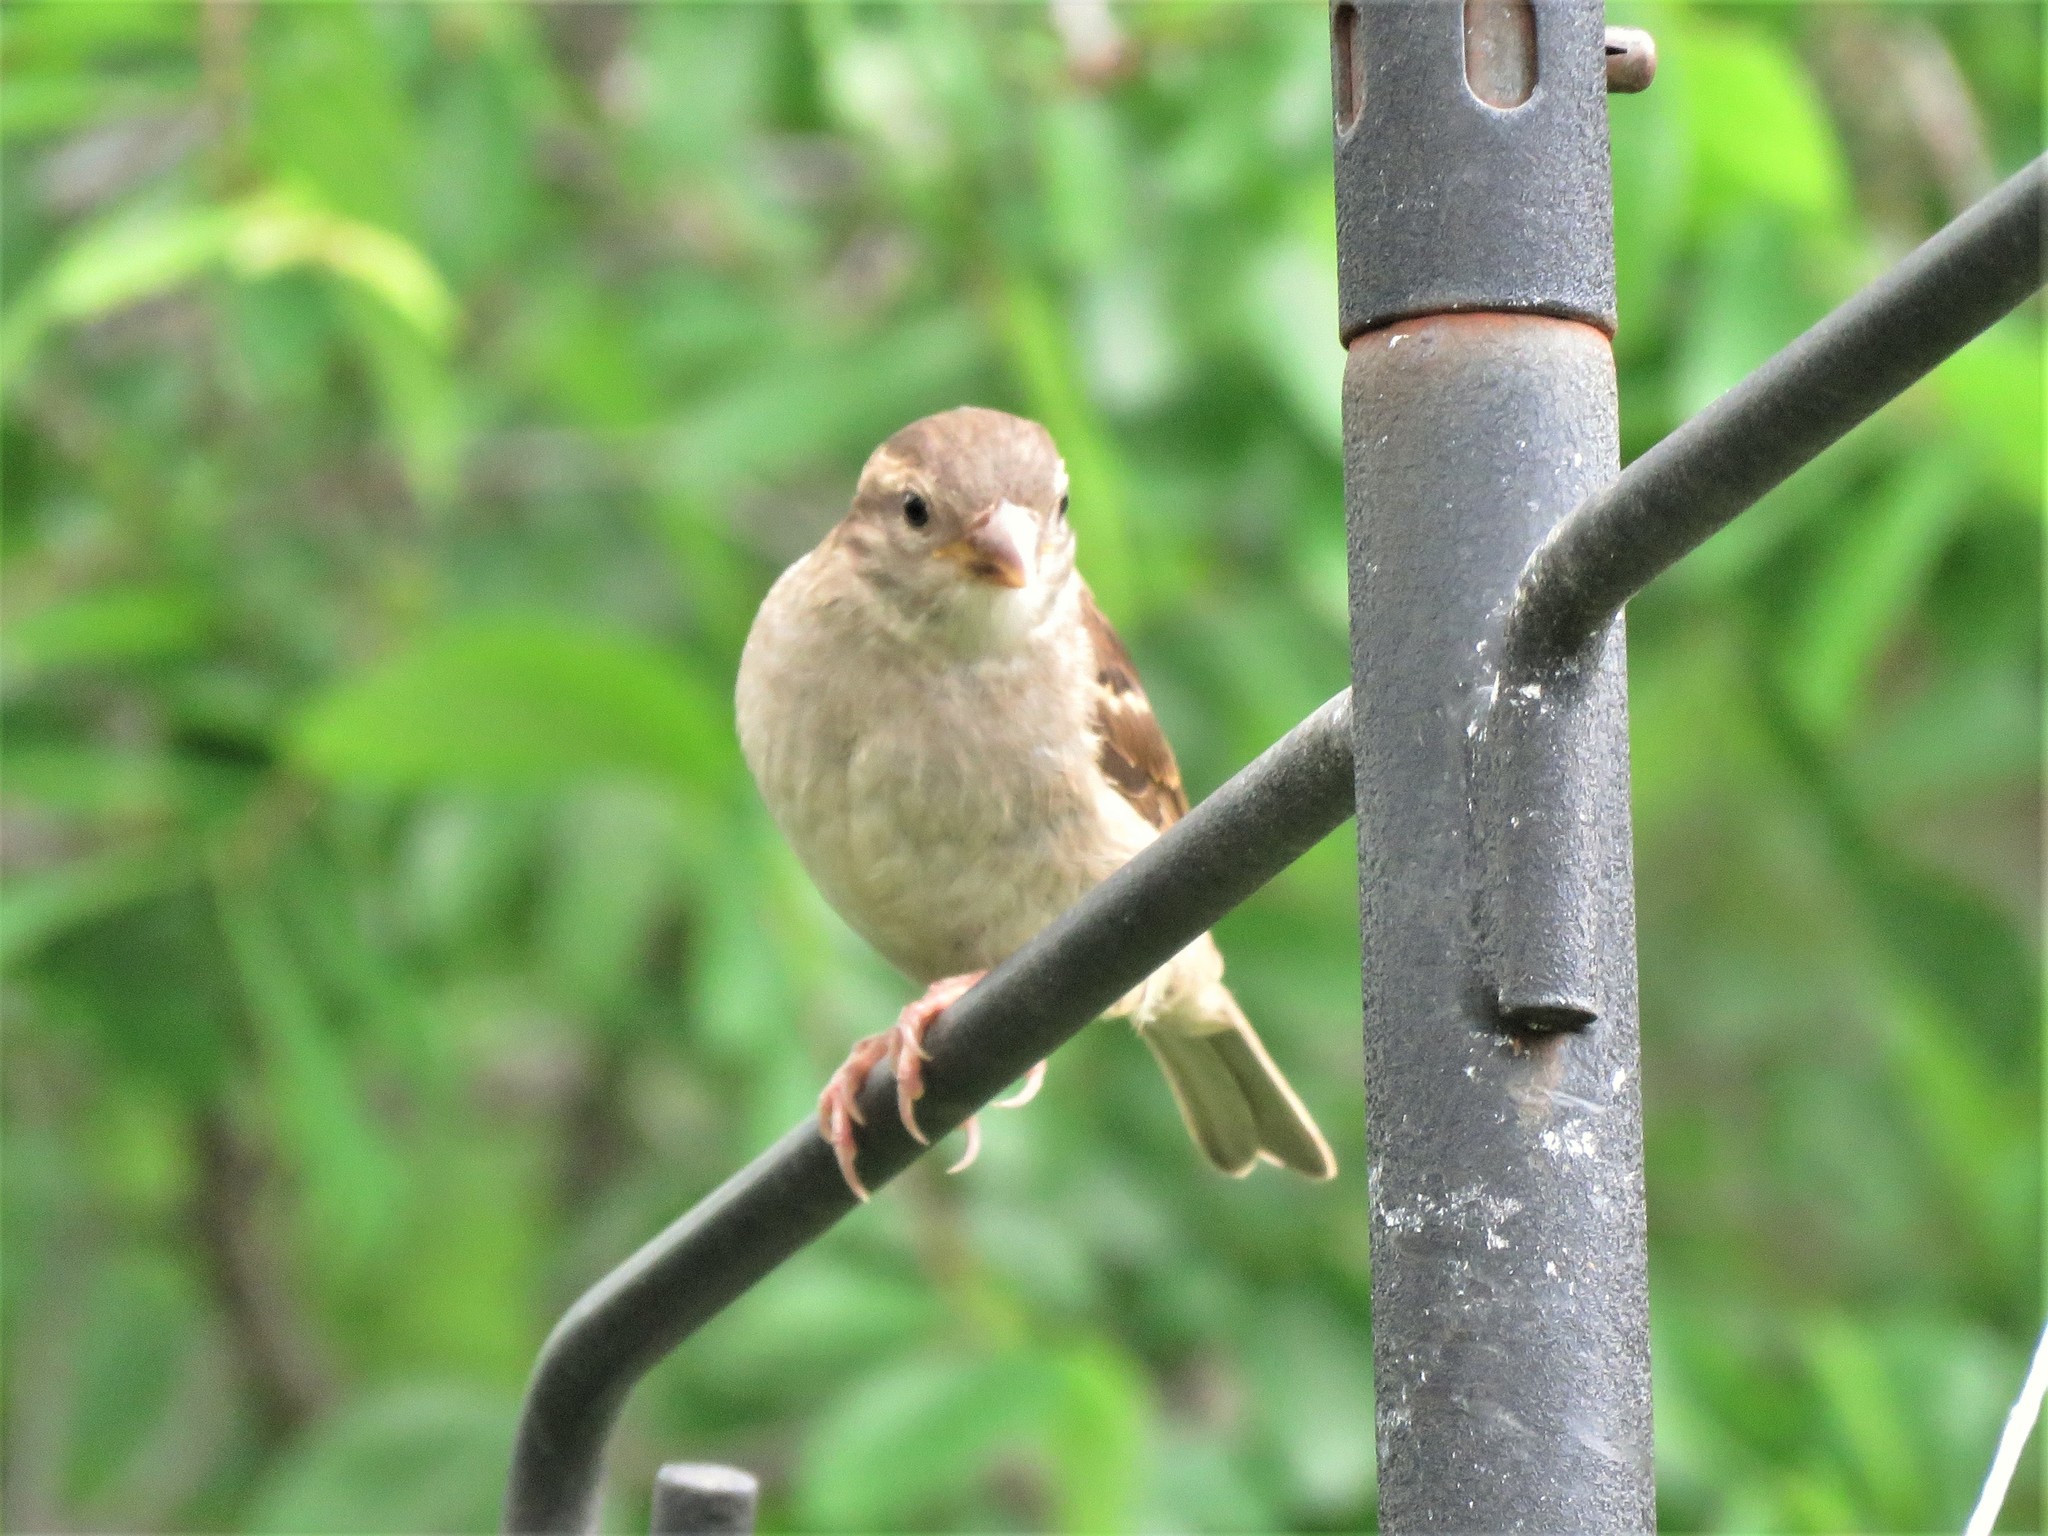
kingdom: Animalia
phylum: Chordata
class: Aves
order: Passeriformes
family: Passeridae
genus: Passer
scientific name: Passer domesticus
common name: House sparrow
